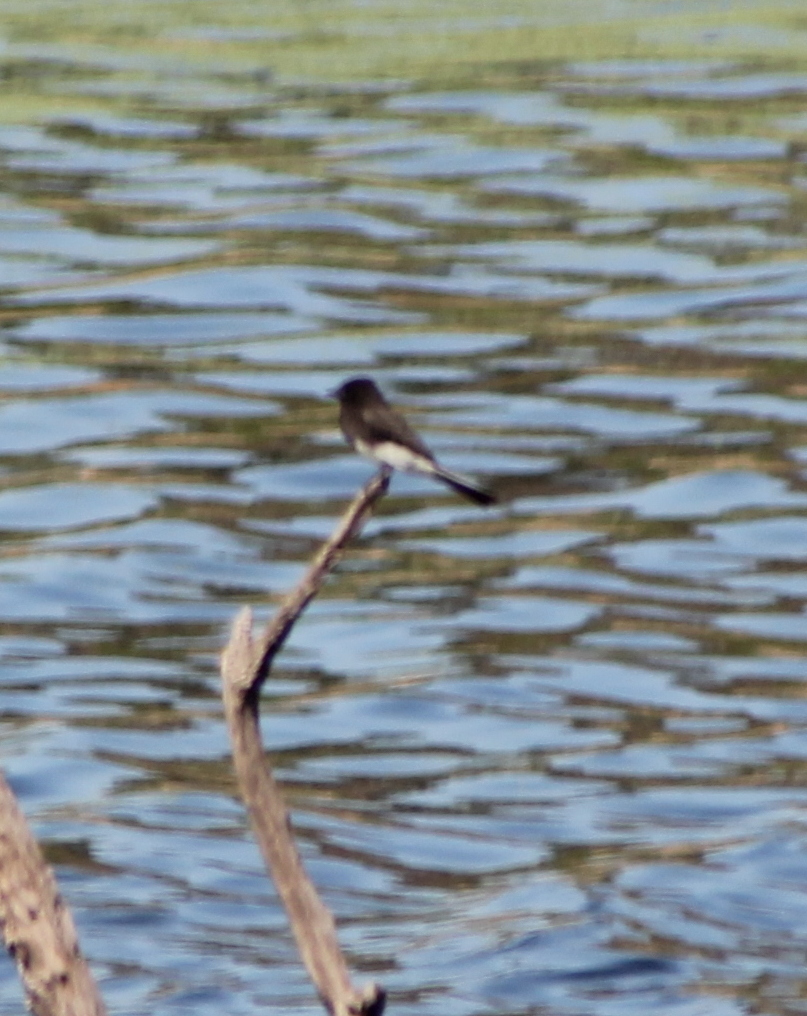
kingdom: Animalia
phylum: Chordata
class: Aves
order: Passeriformes
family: Tyrannidae
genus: Sayornis
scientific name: Sayornis nigricans
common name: Black phoebe
